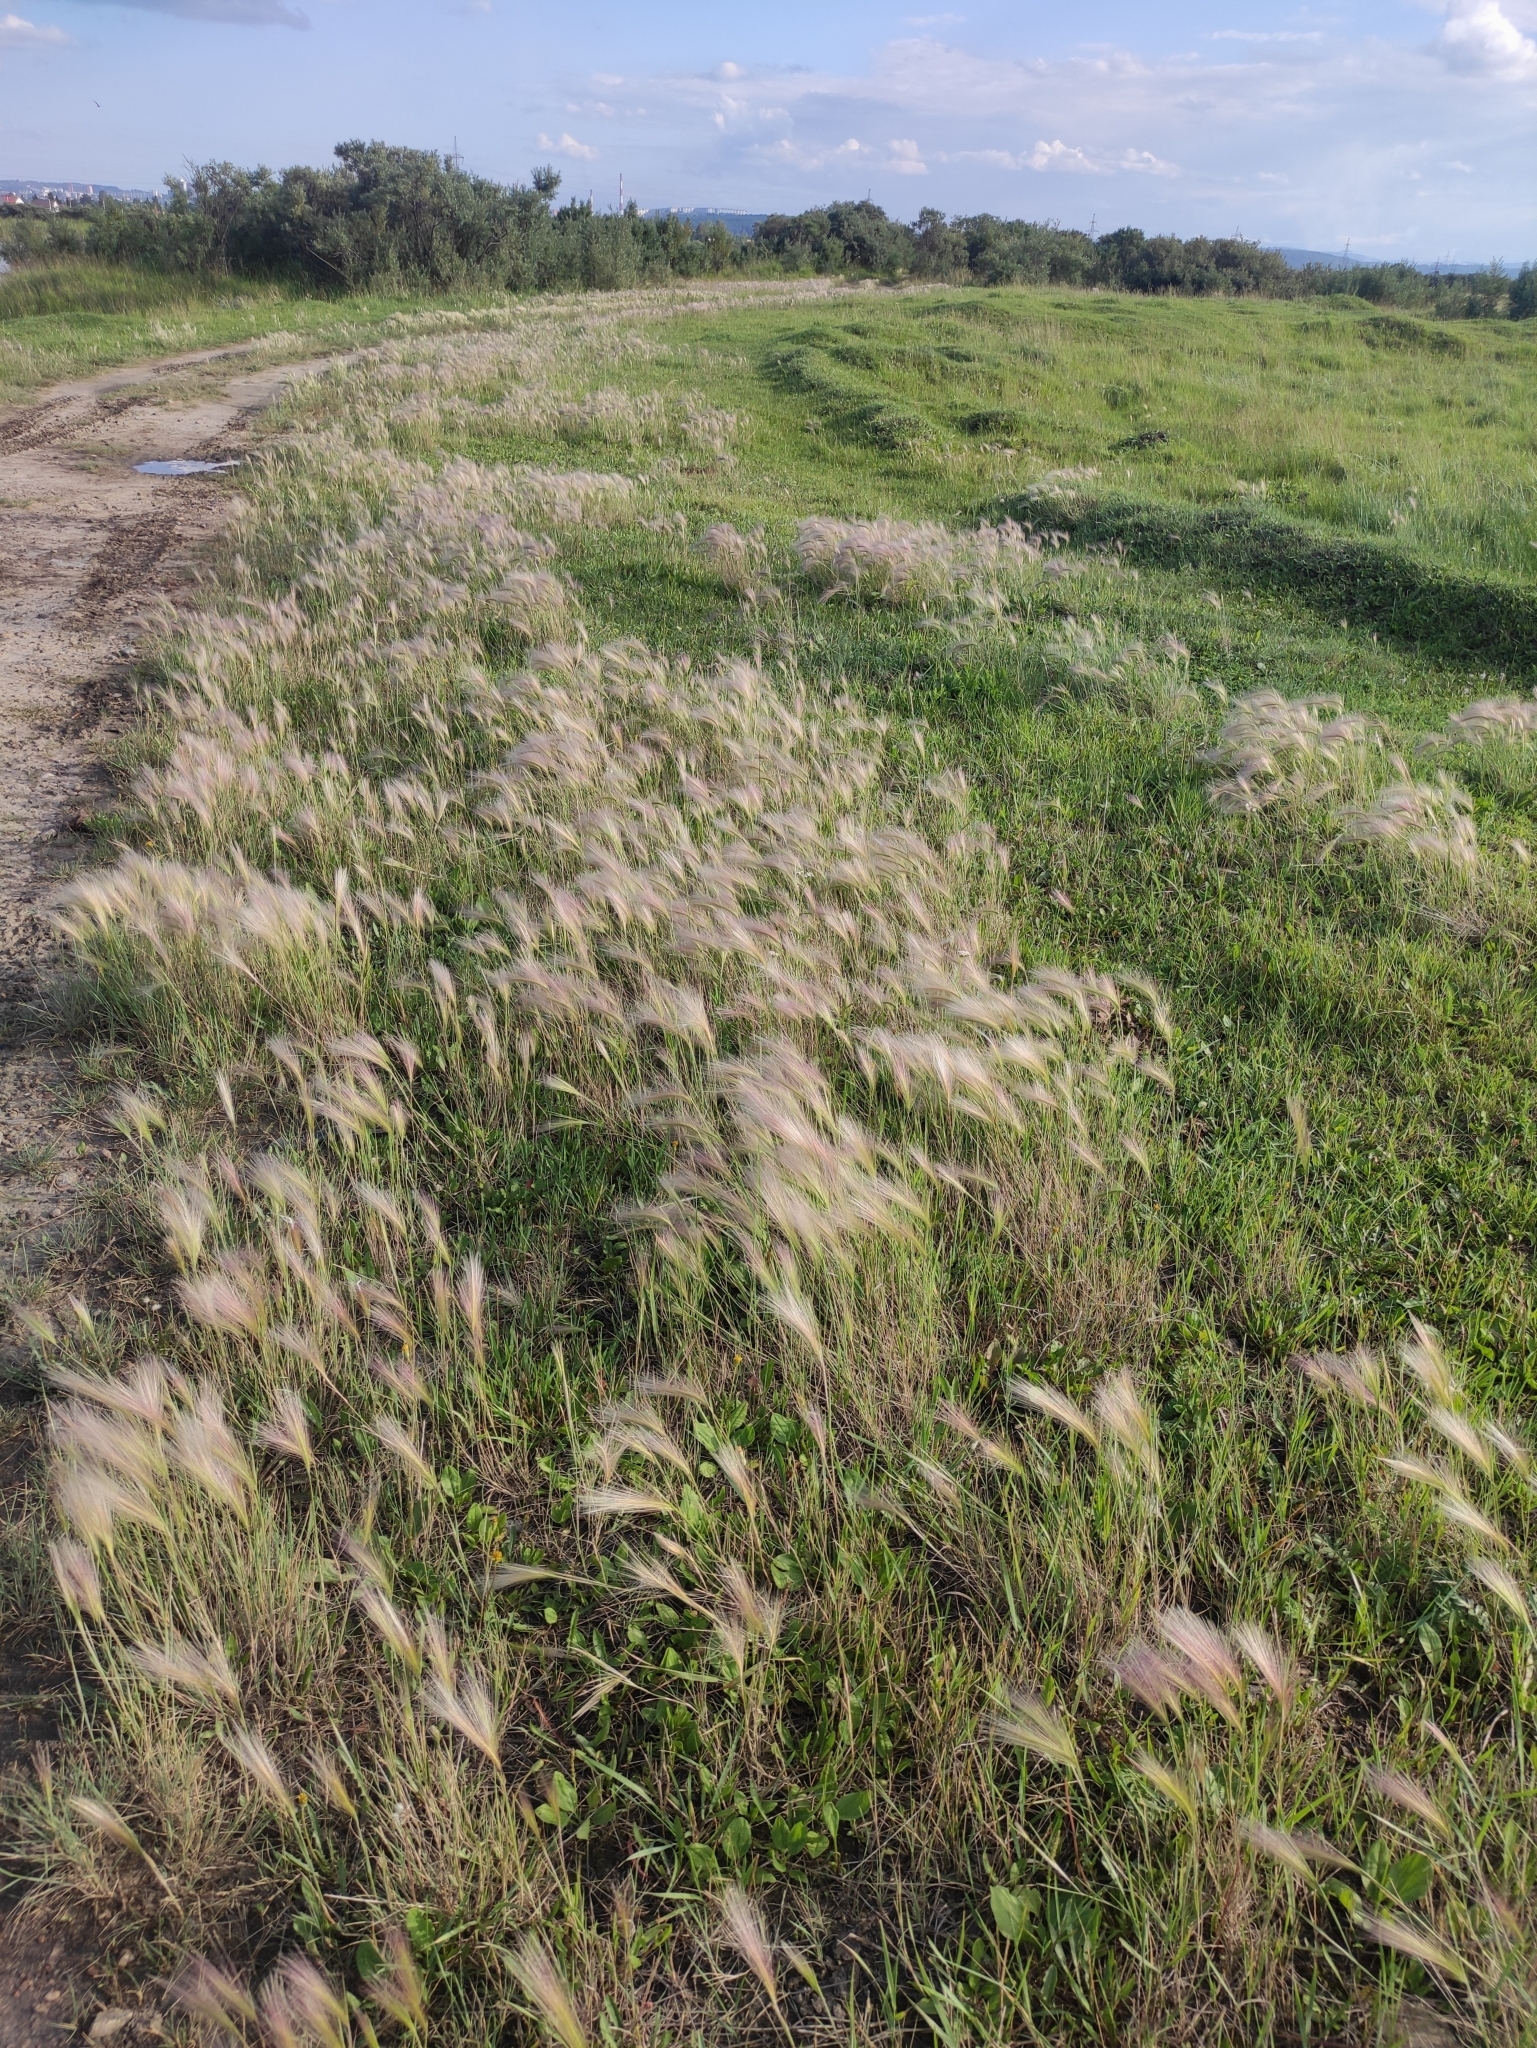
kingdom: Plantae
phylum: Tracheophyta
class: Liliopsida
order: Poales
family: Poaceae
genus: Hordeum
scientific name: Hordeum jubatum
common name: Foxtail barley
